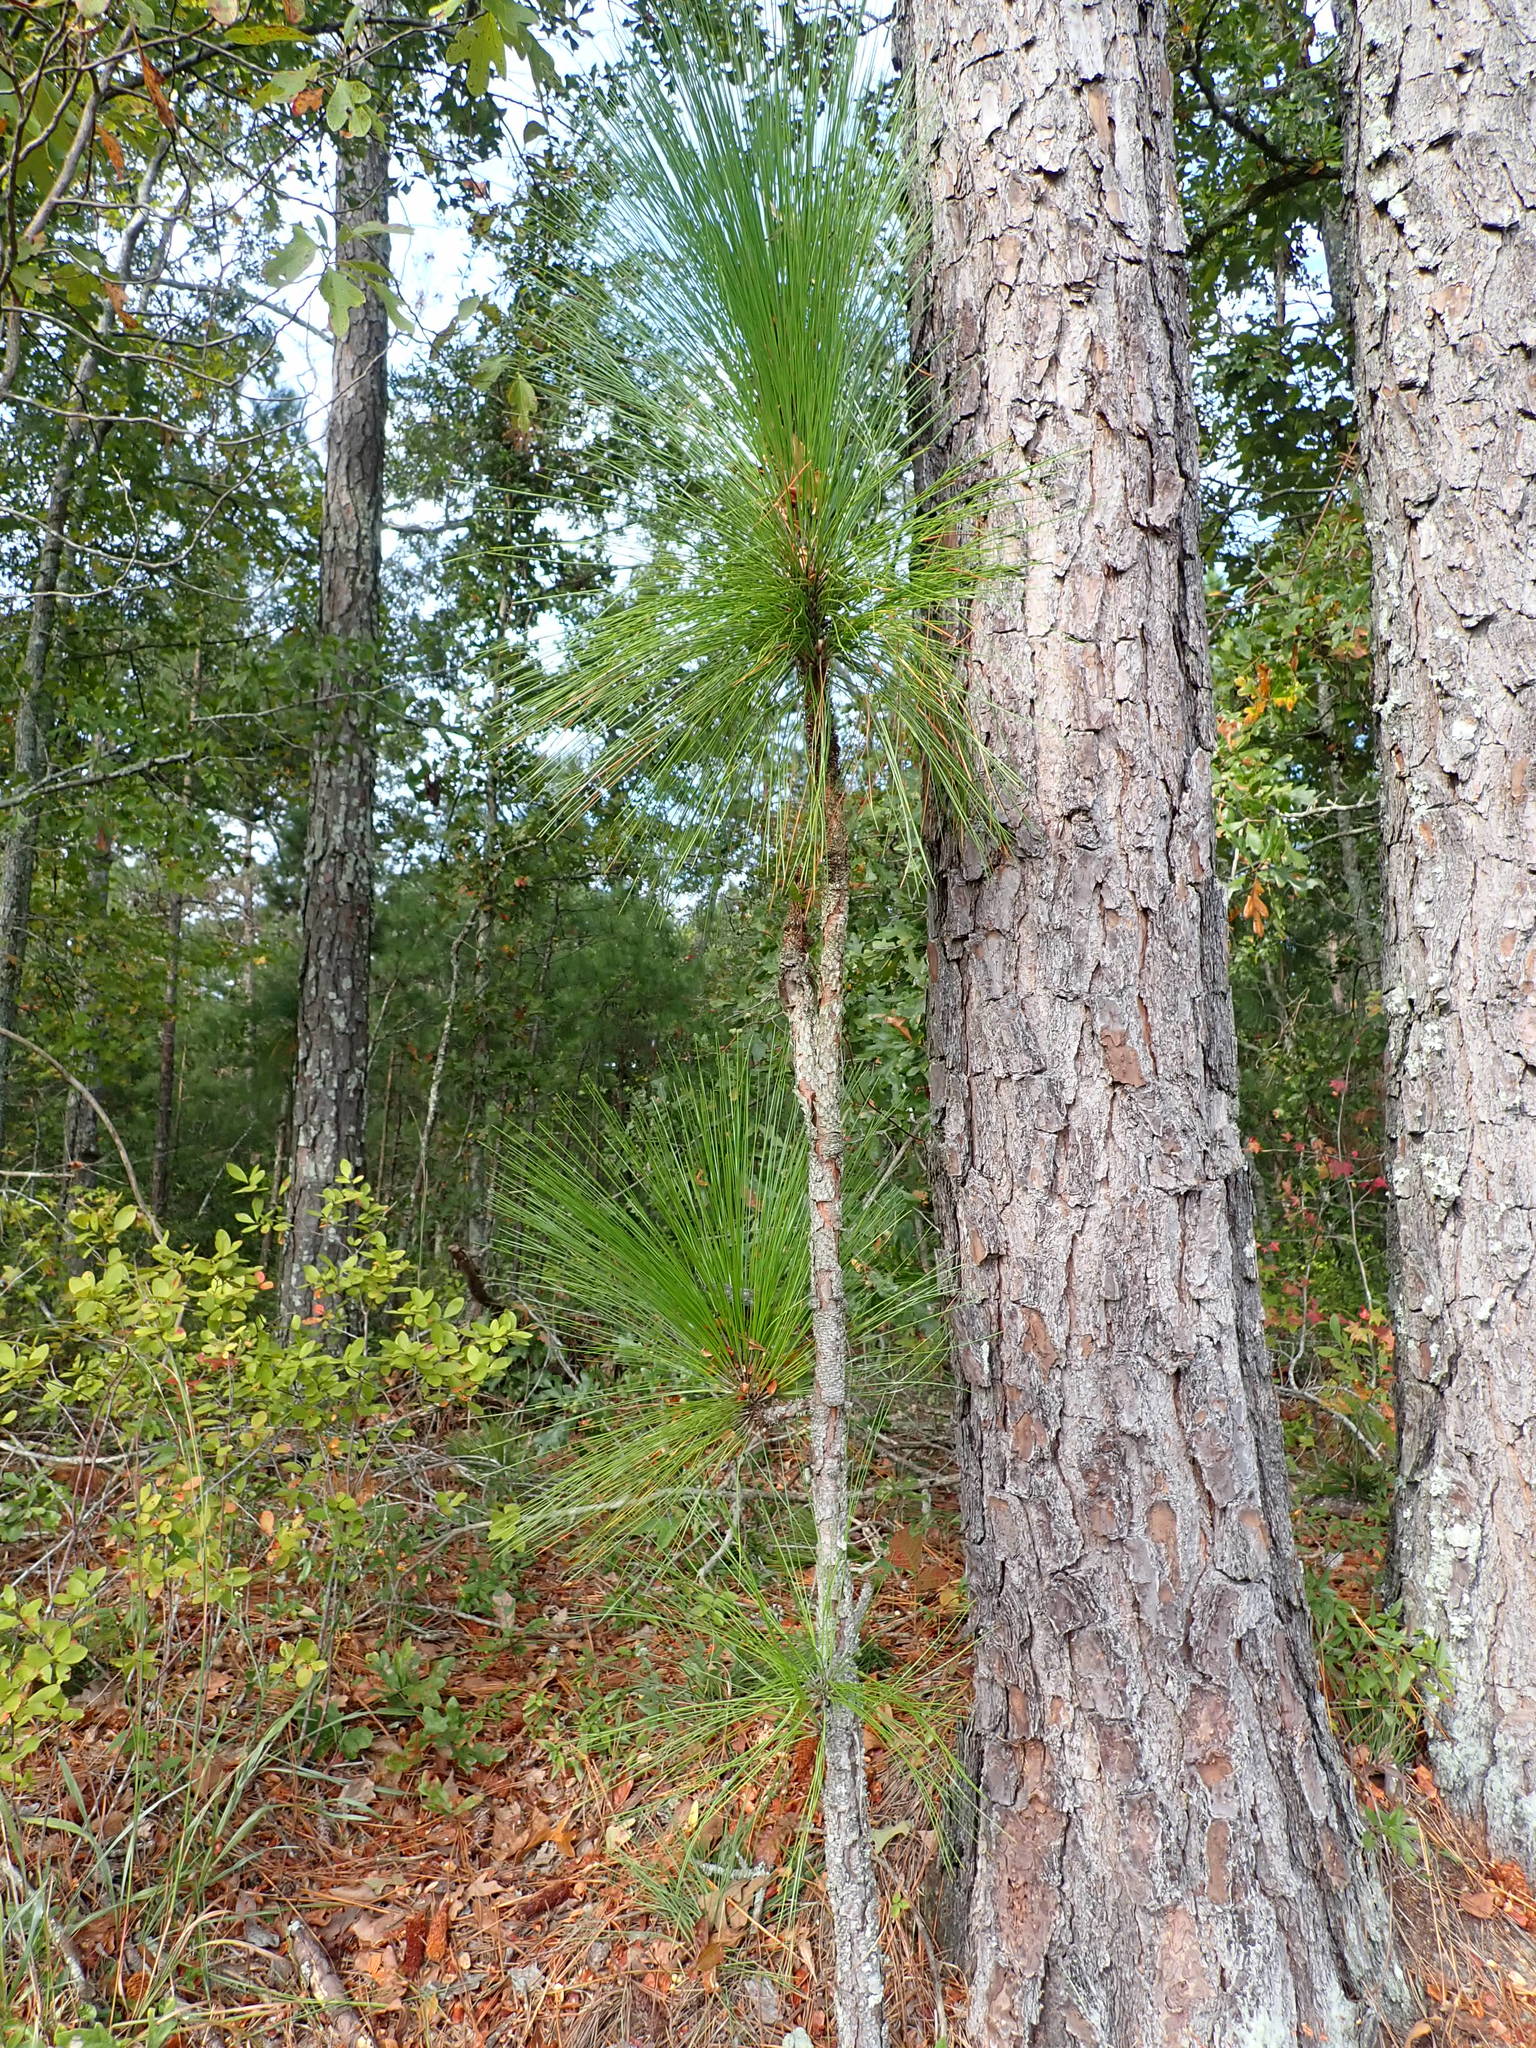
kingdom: Plantae
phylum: Tracheophyta
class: Pinopsida
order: Pinales
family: Pinaceae
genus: Pinus
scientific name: Pinus palustris
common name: Longleaf pine
